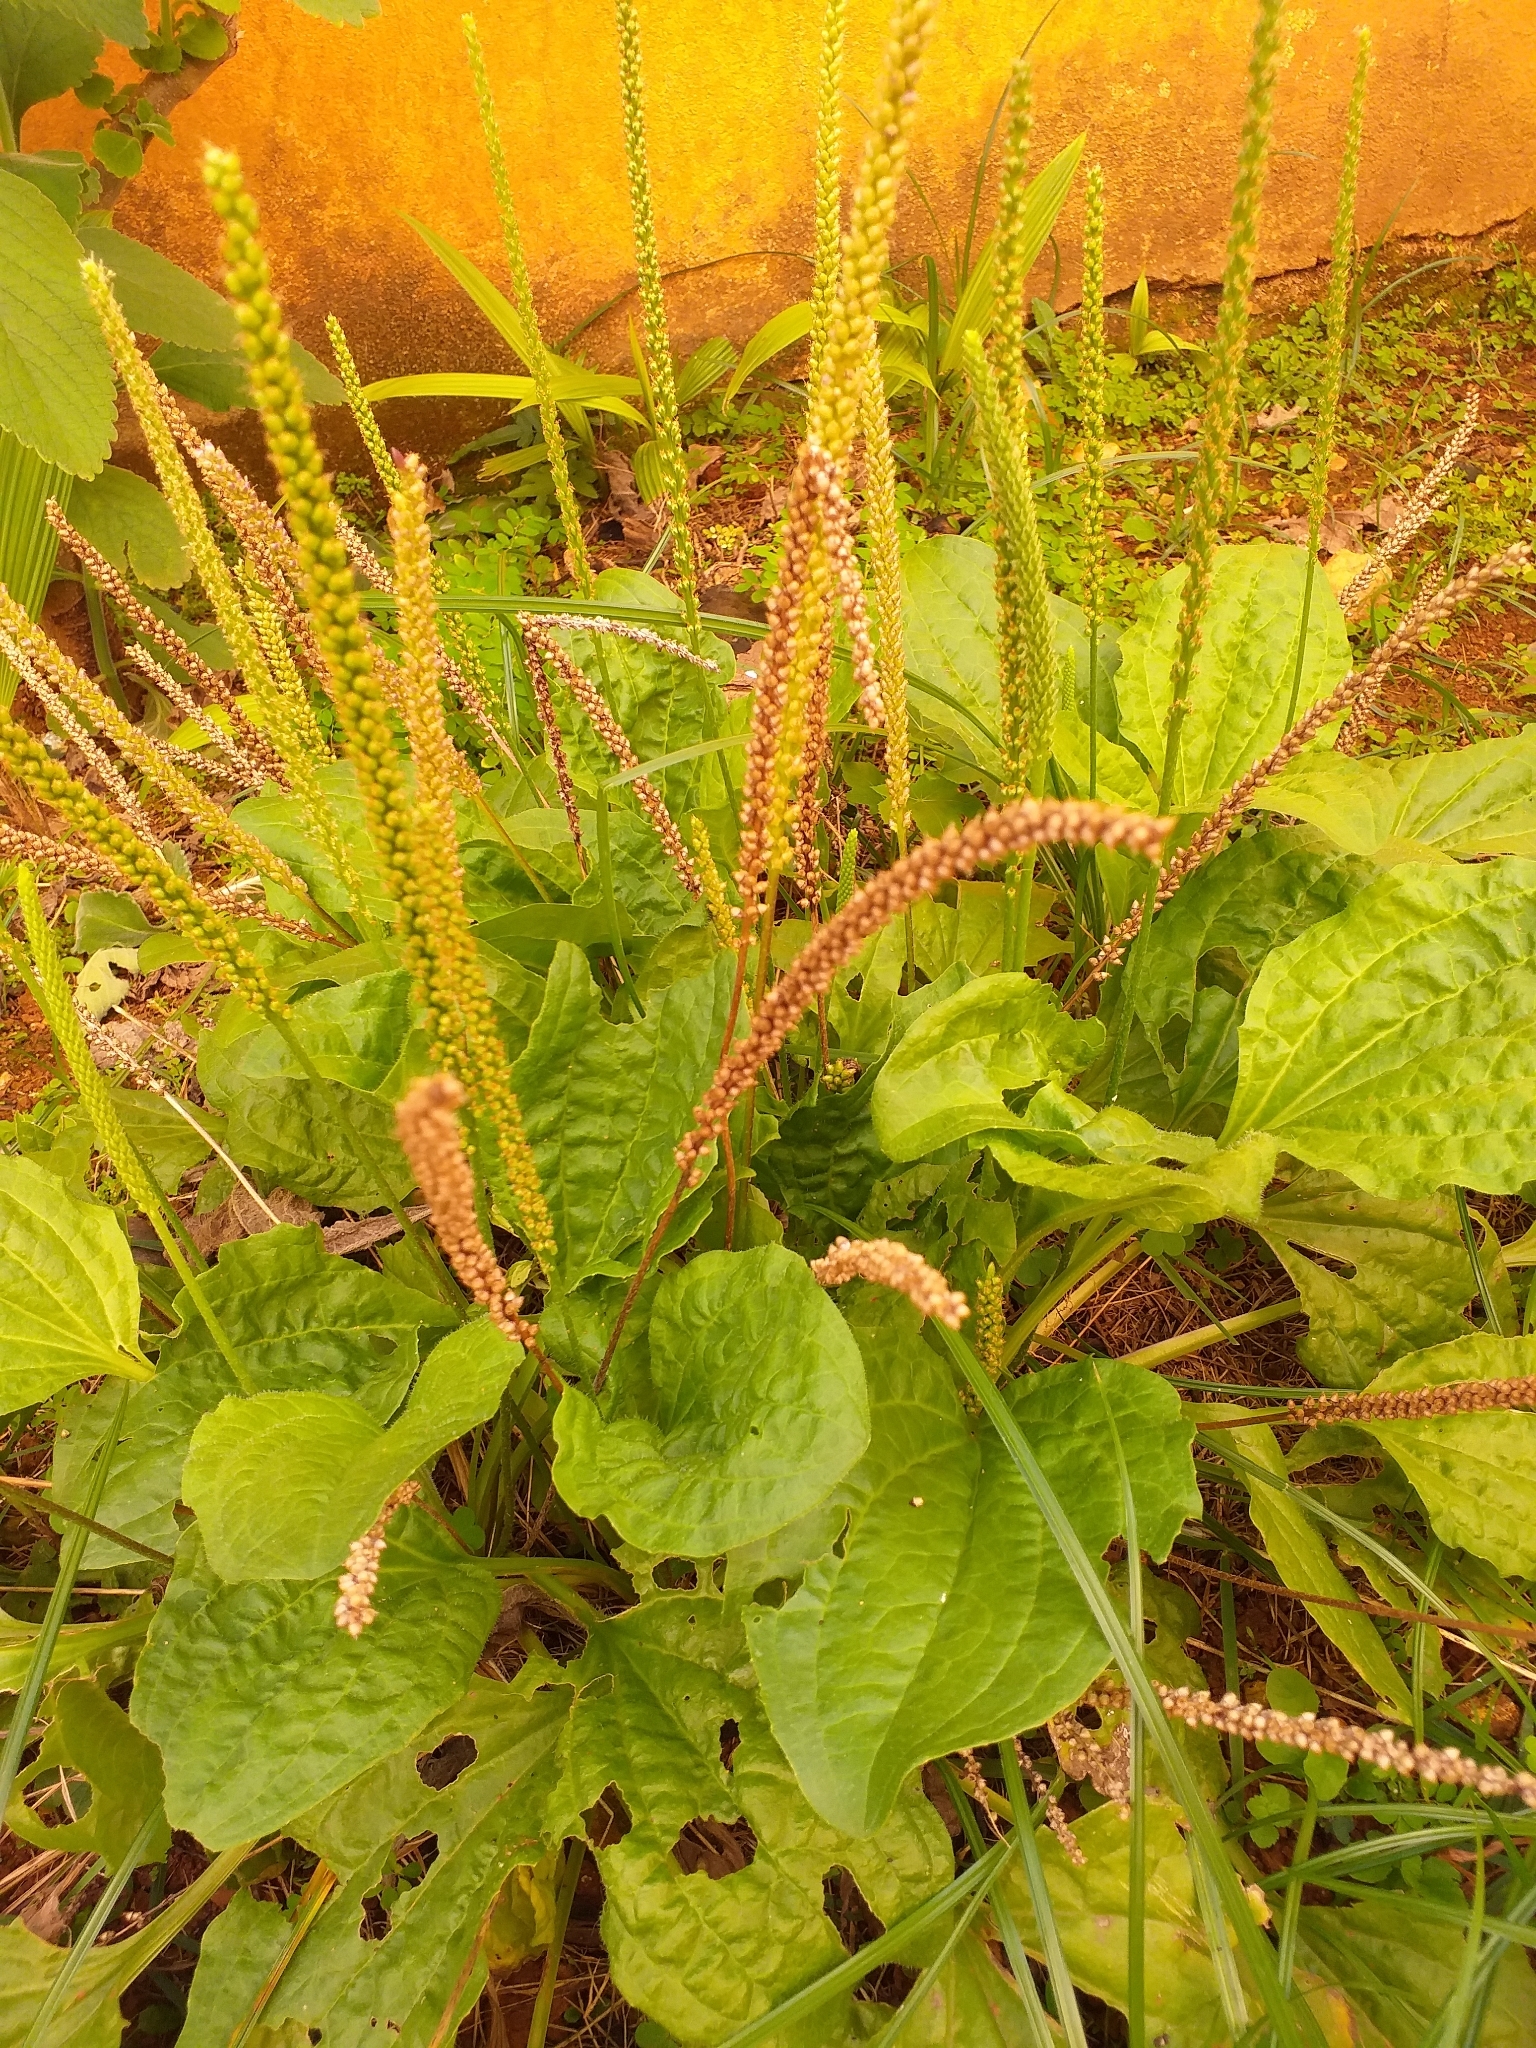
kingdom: Plantae
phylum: Tracheophyta
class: Magnoliopsida
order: Lamiales
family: Plantaginaceae
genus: Plantago
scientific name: Plantago major
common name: Common plantain
